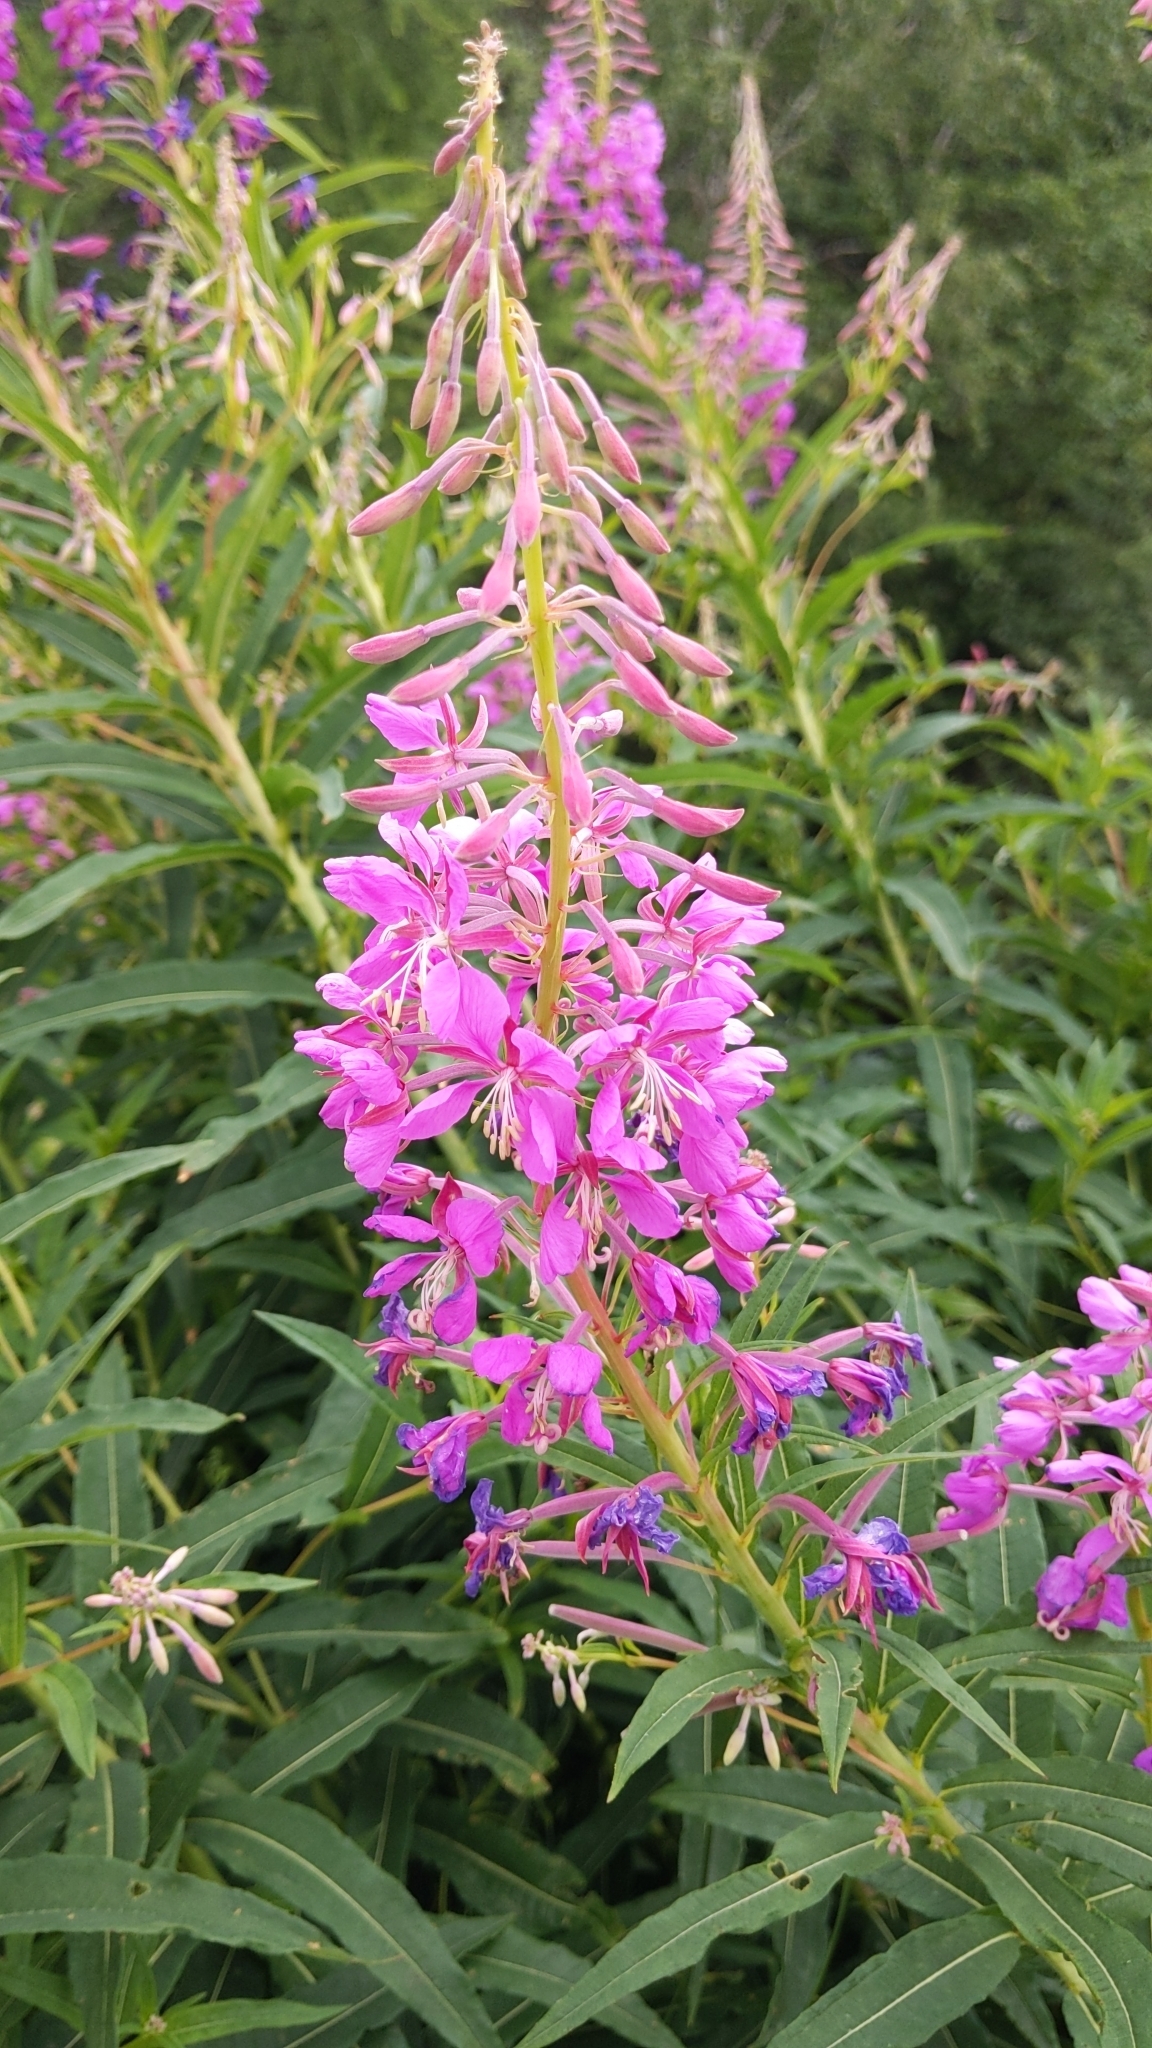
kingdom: Plantae
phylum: Tracheophyta
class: Magnoliopsida
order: Myrtales
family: Onagraceae
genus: Chamaenerion
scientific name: Chamaenerion angustifolium
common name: Fireweed
